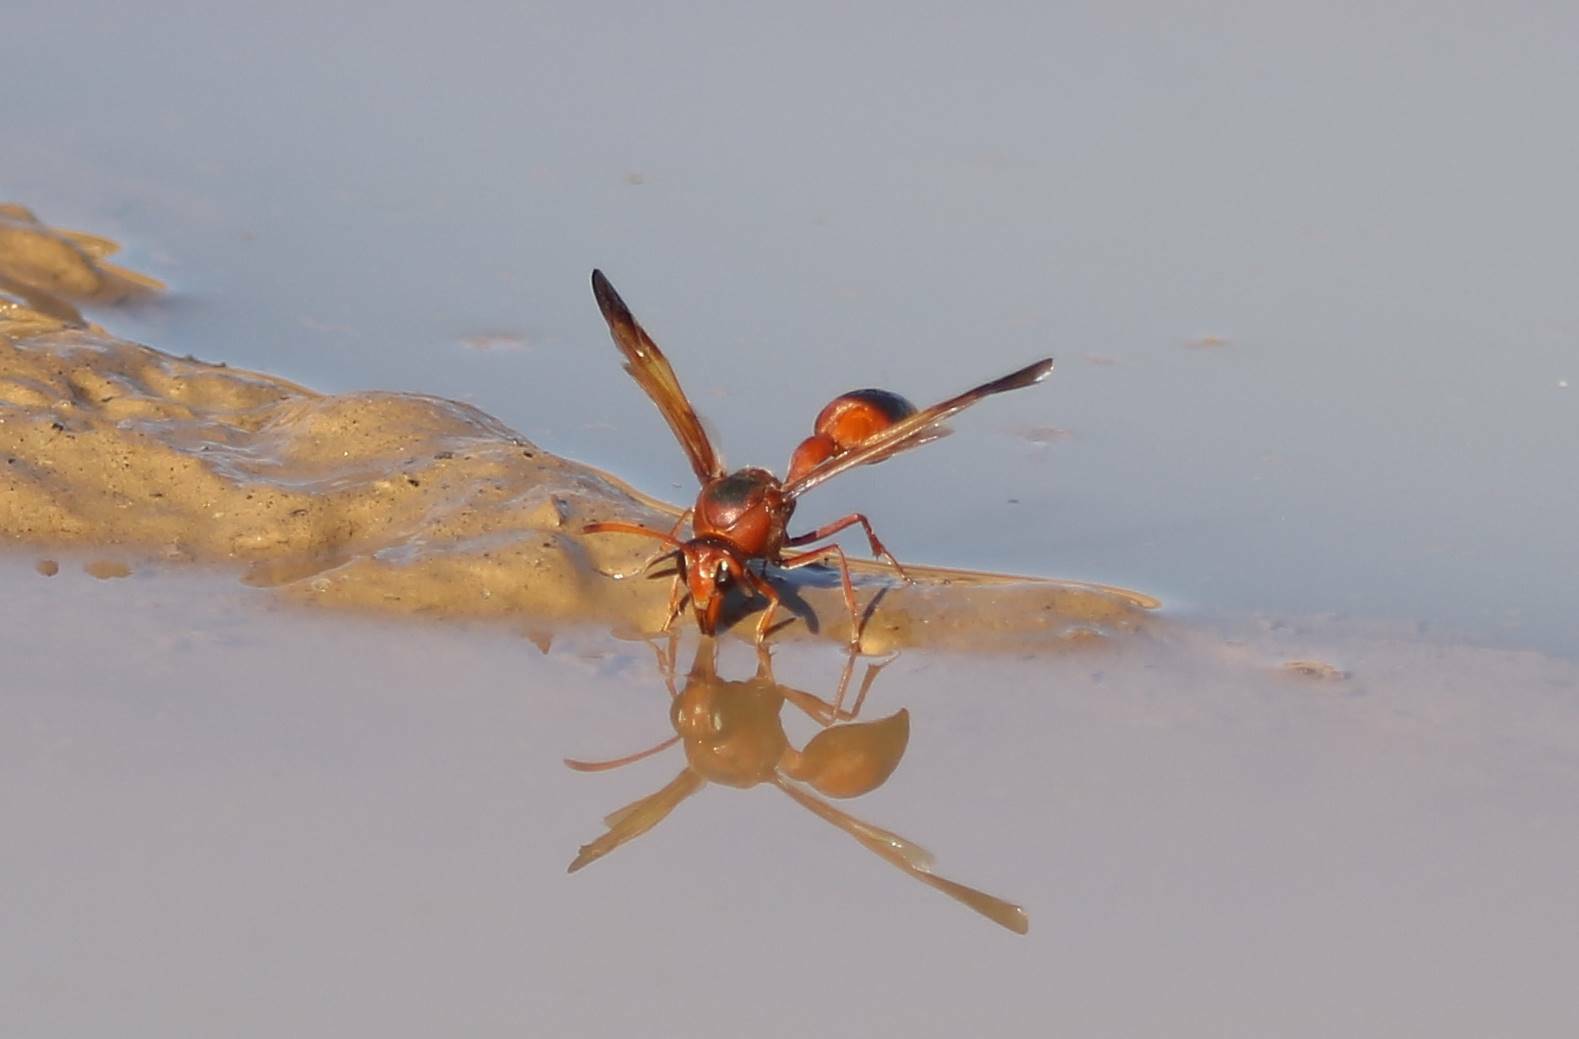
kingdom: Animalia
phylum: Arthropoda
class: Insecta
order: Hymenoptera
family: Eumenidae
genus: Delta
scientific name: Delta dimidiatipenne
